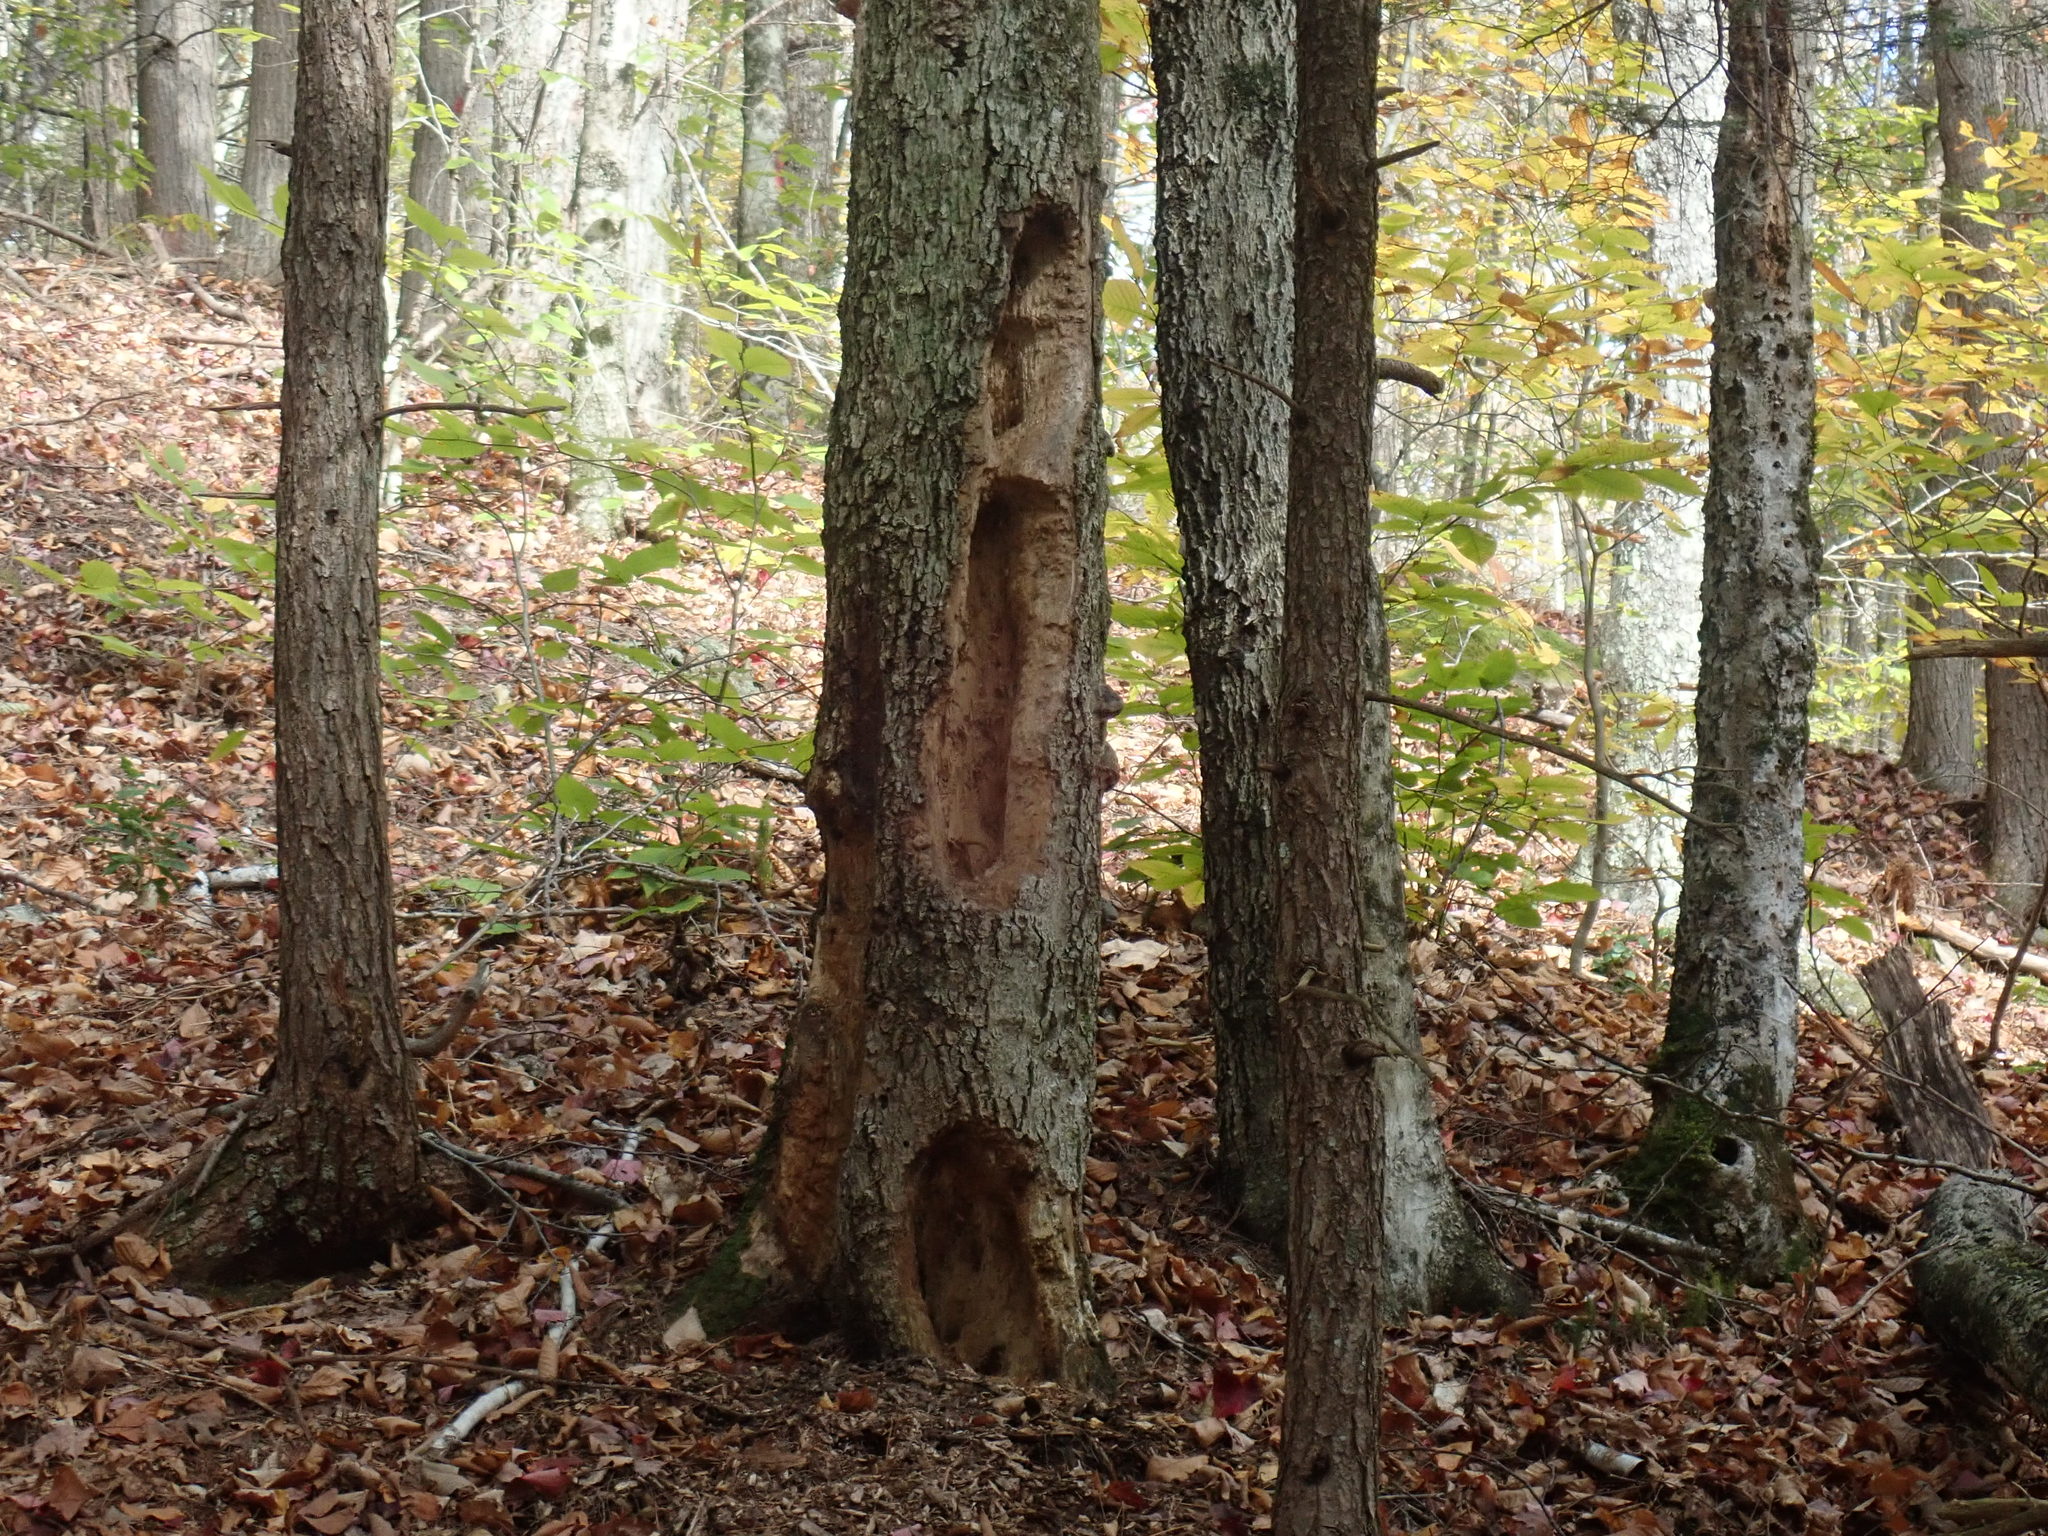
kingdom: Animalia
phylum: Chordata
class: Aves
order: Piciformes
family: Picidae
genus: Dryocopus
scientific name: Dryocopus pileatus
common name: Pileated woodpecker
